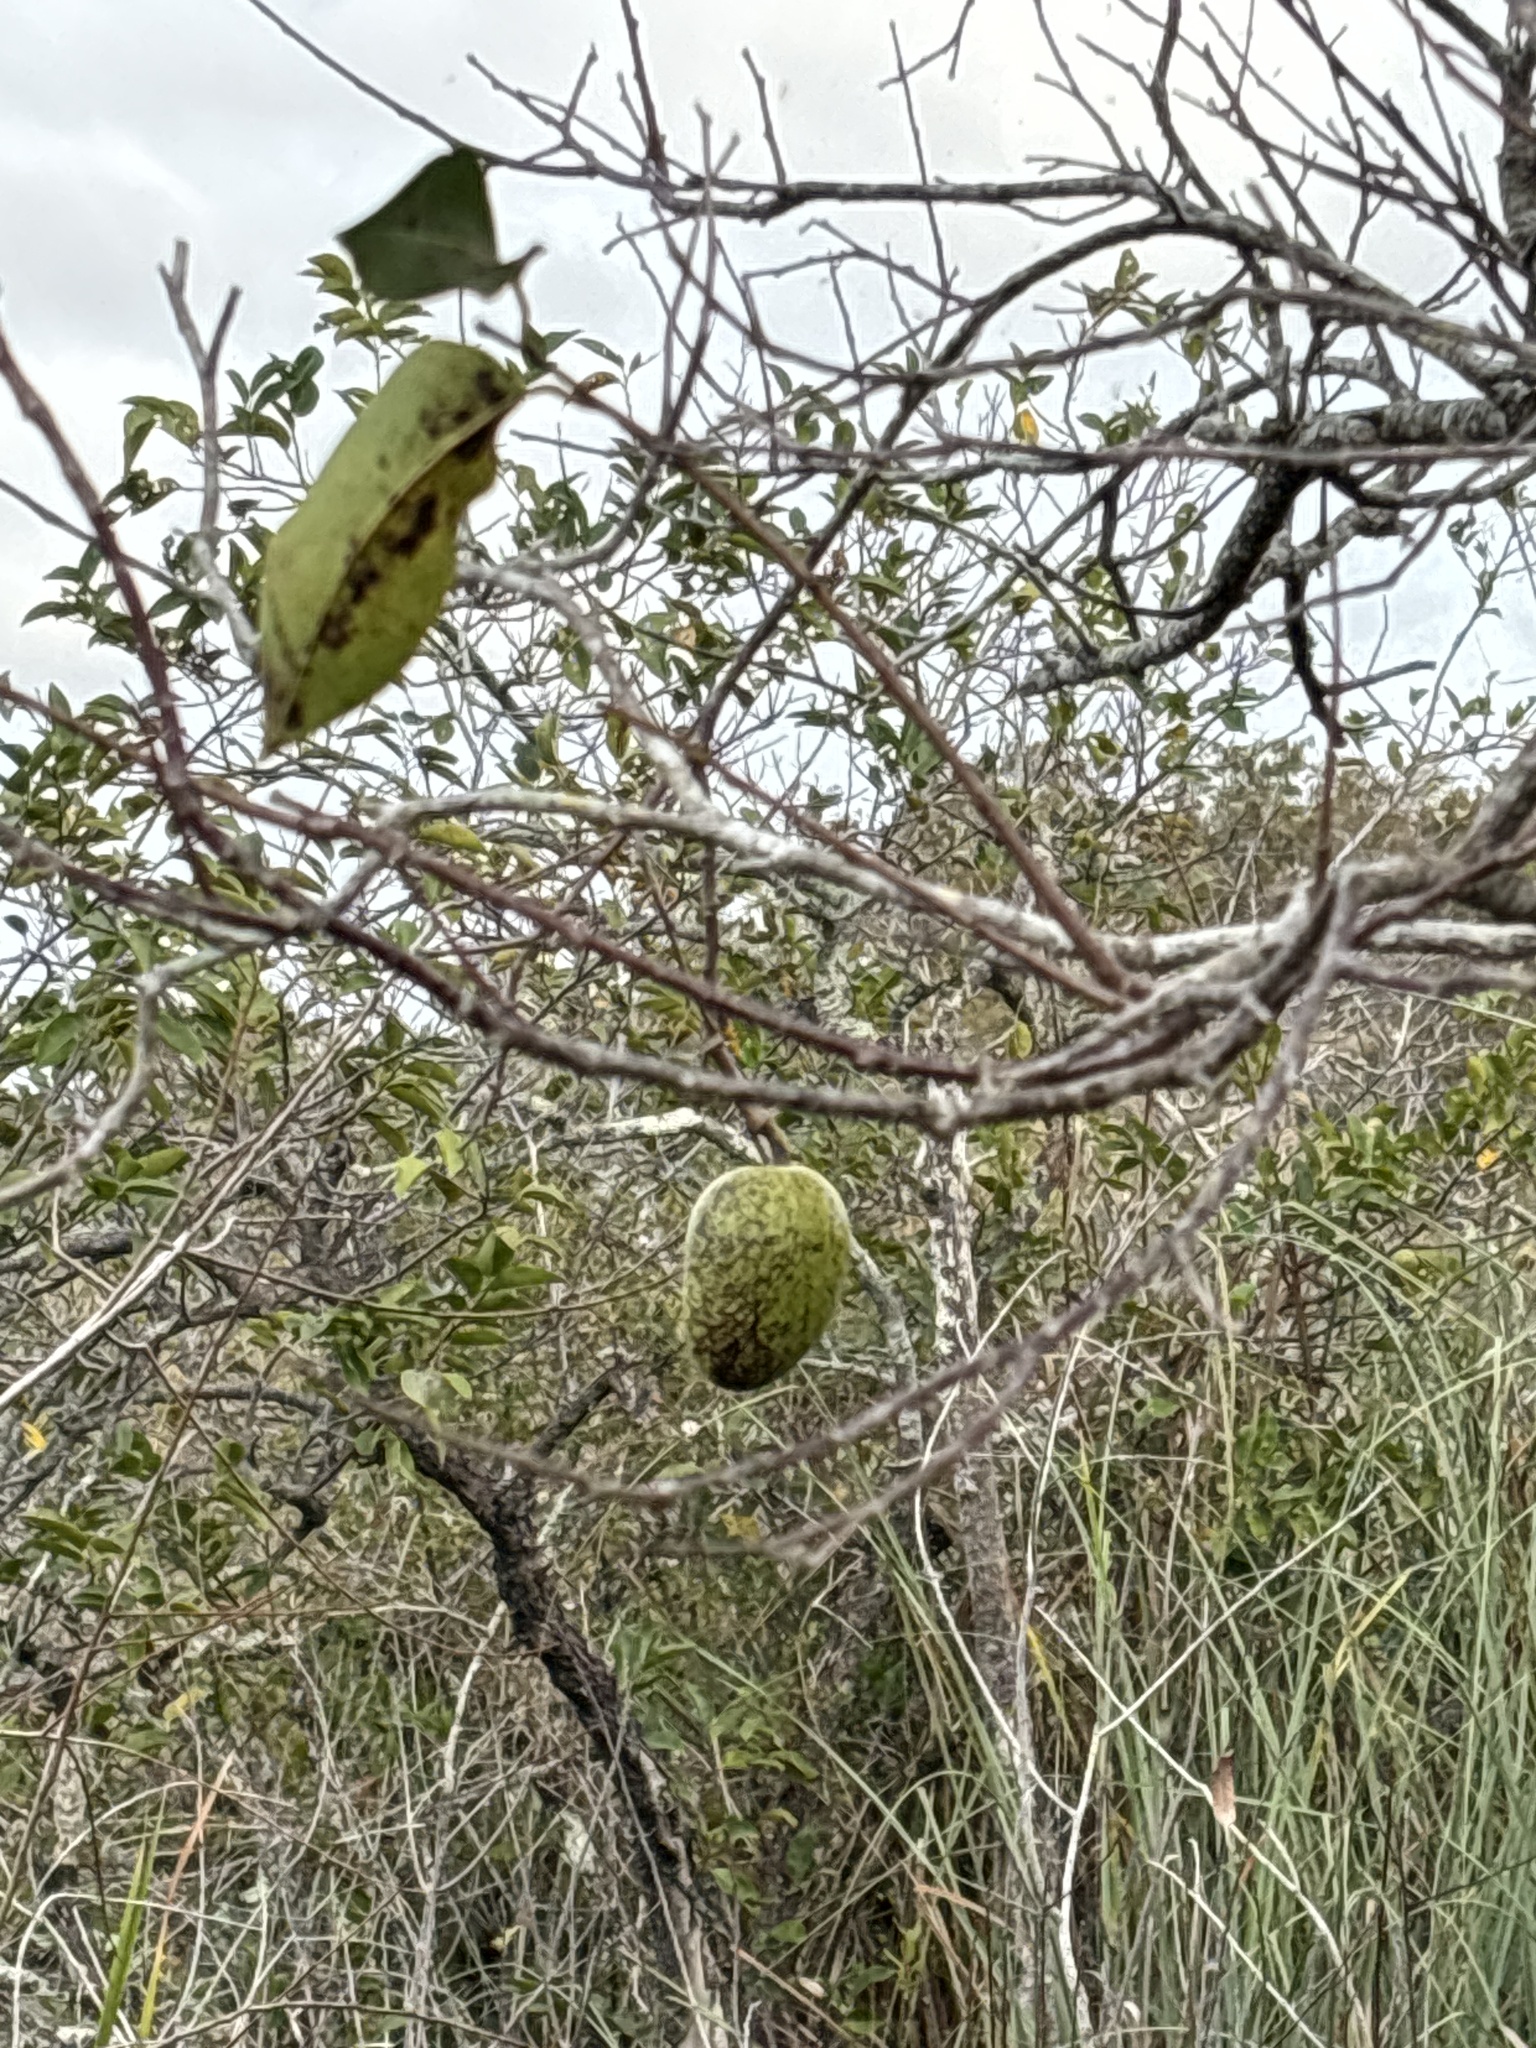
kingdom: Plantae
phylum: Tracheophyta
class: Magnoliopsida
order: Magnoliales
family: Annonaceae
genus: Annona
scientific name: Annona glabra
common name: Monkey apple
